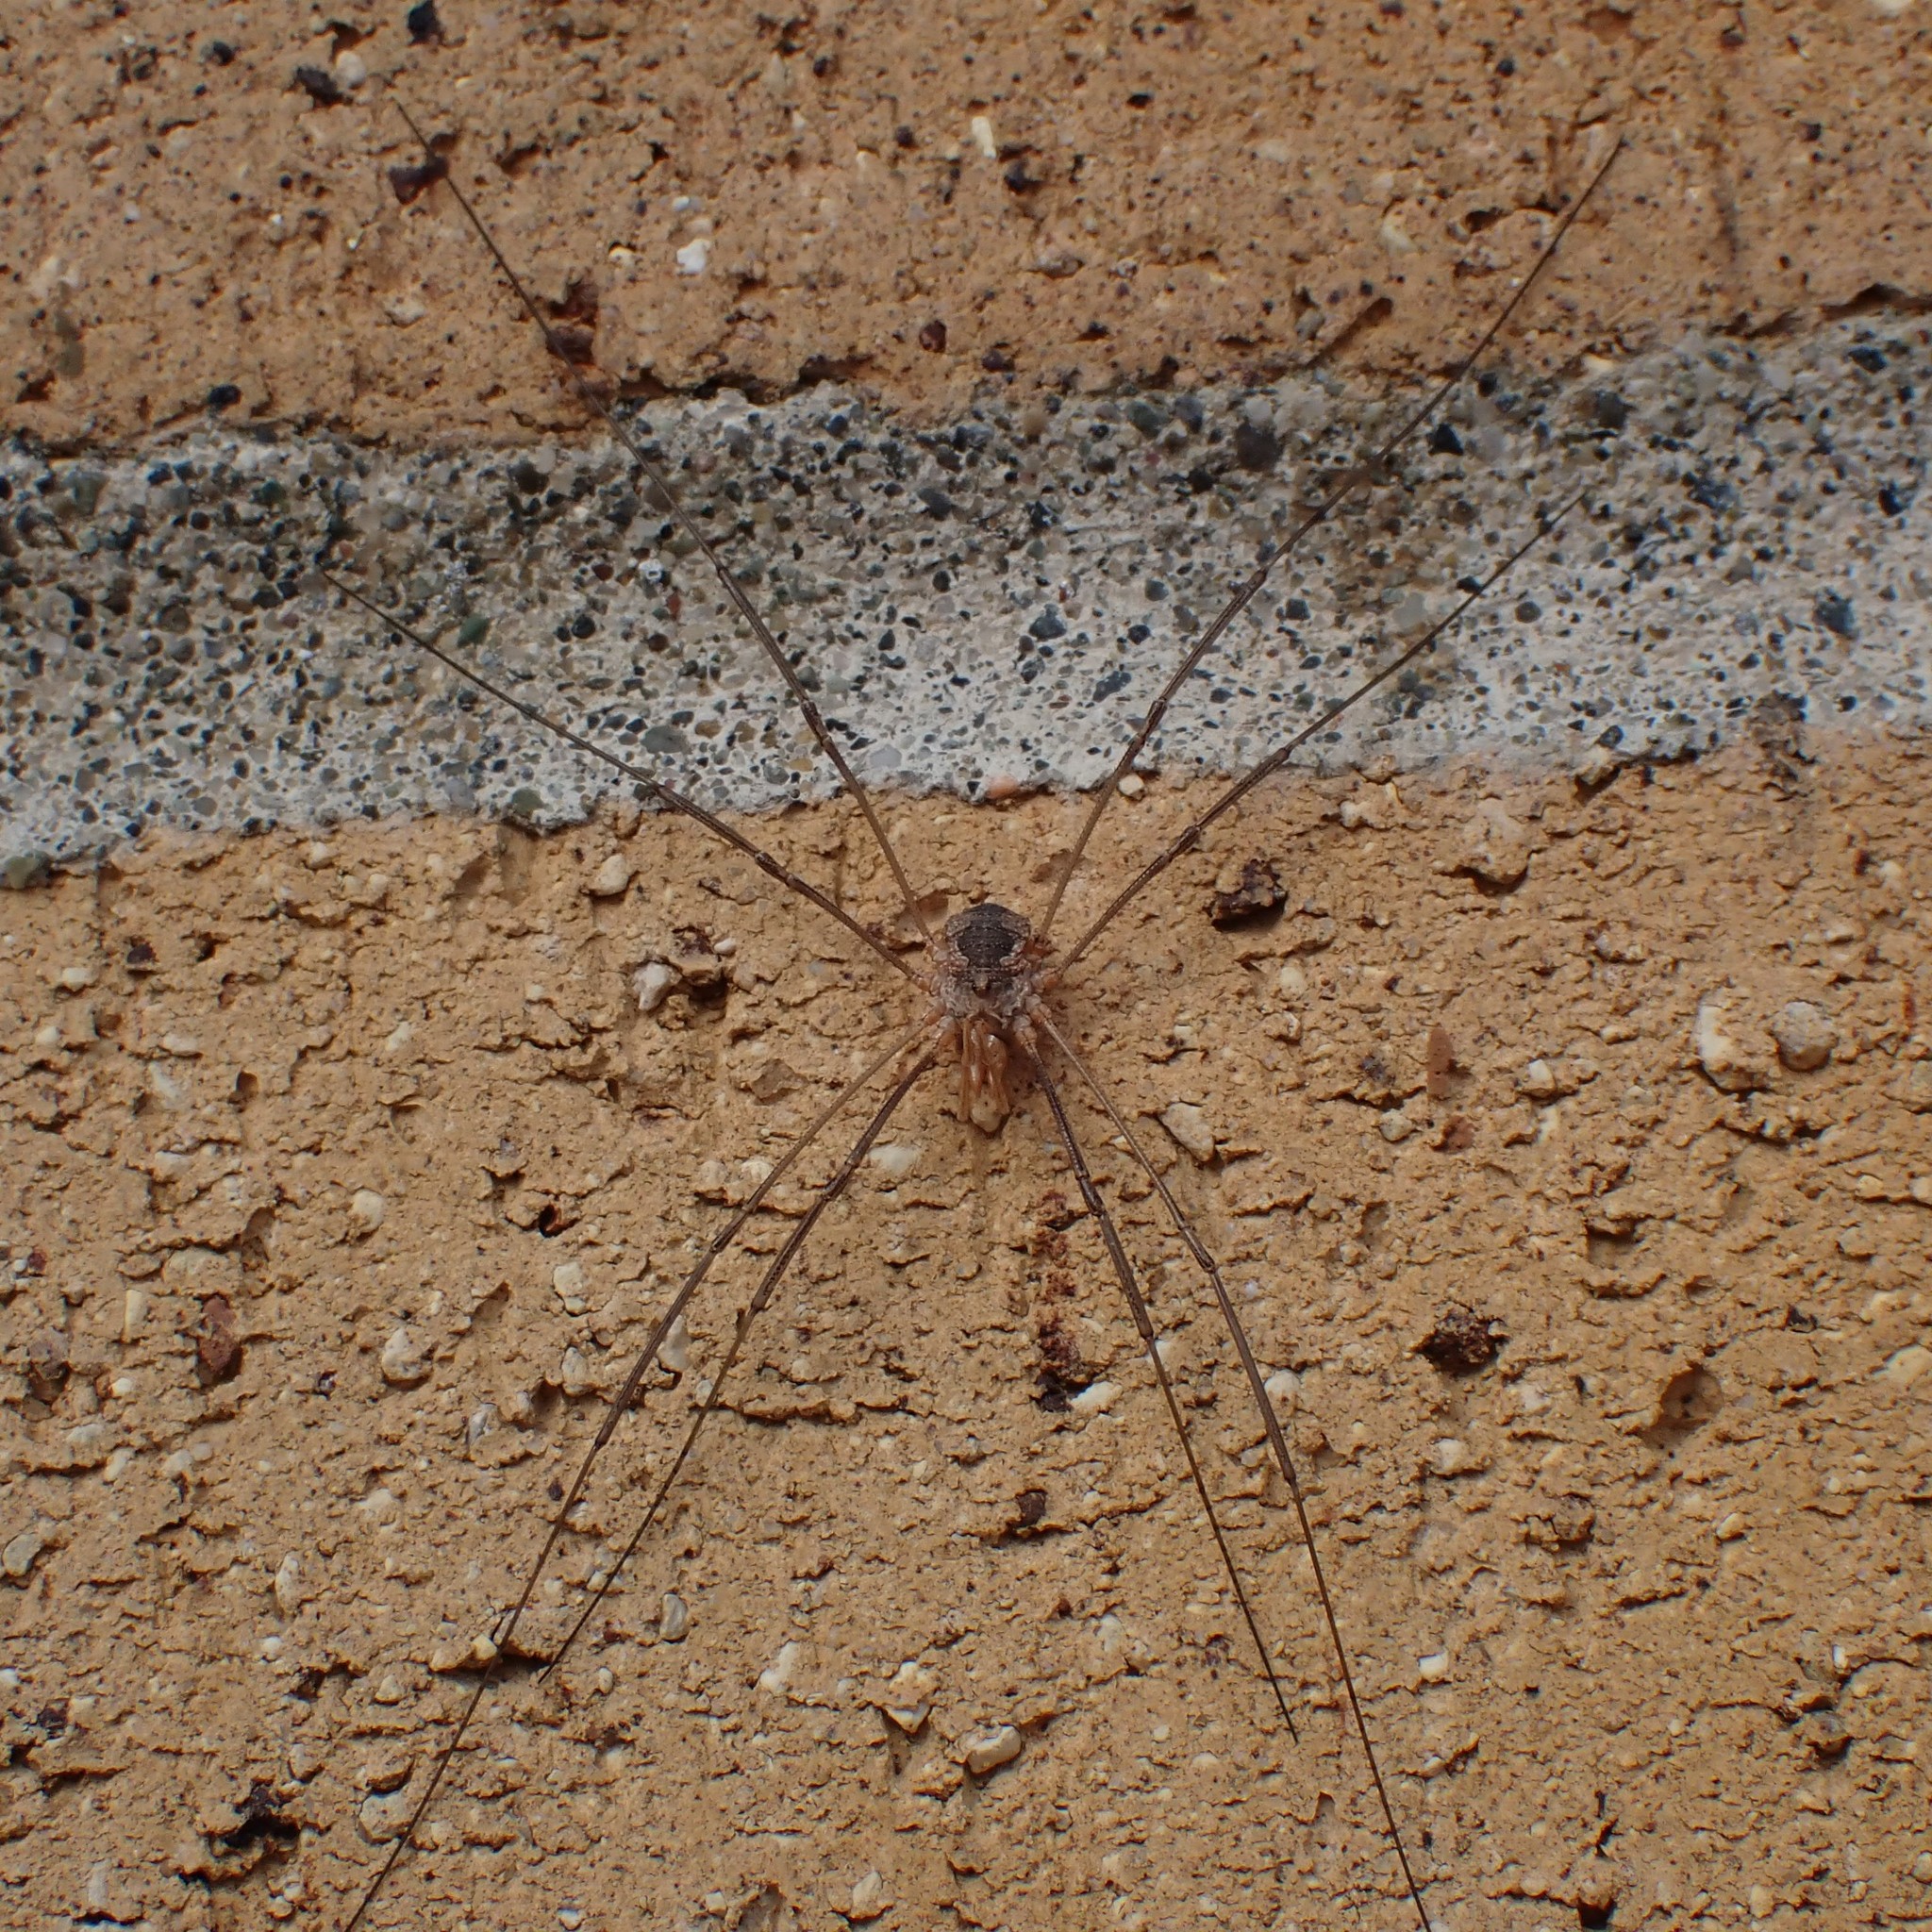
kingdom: Animalia
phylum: Arthropoda
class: Arachnida
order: Opiliones
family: Phalangiidae
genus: Phalangium
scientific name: Phalangium opilio
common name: Daddy longleg
